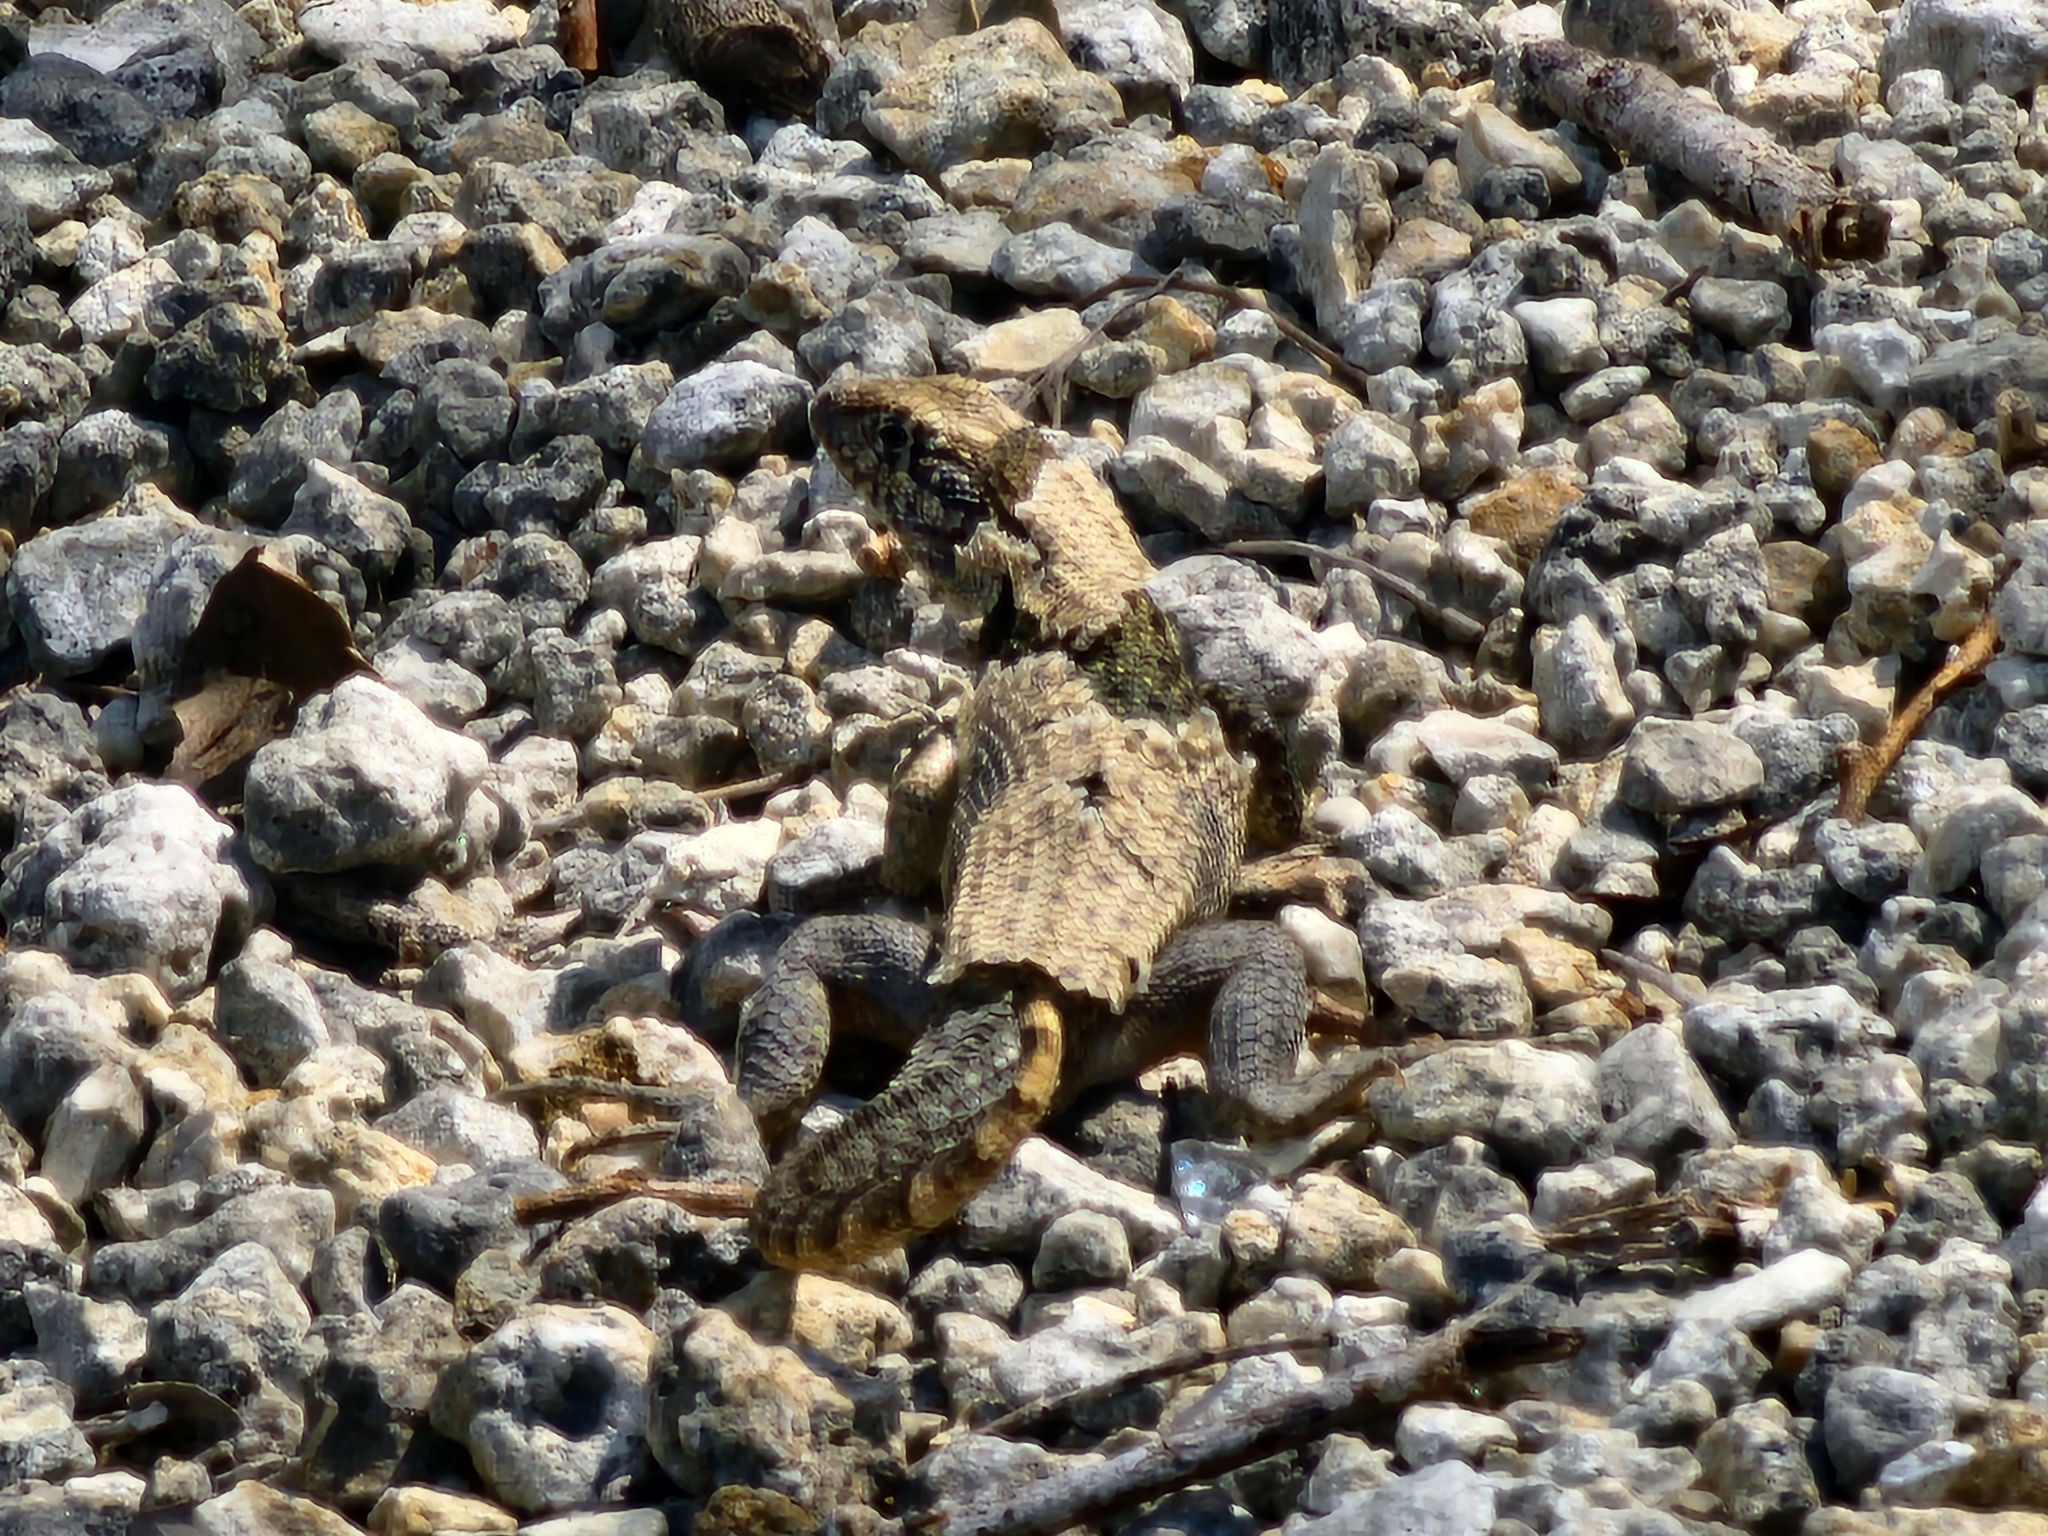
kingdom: Animalia
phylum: Chordata
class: Squamata
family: Leiocephalidae
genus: Leiocephalus
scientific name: Leiocephalus carinatus
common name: Northern curly-tailed lizard
